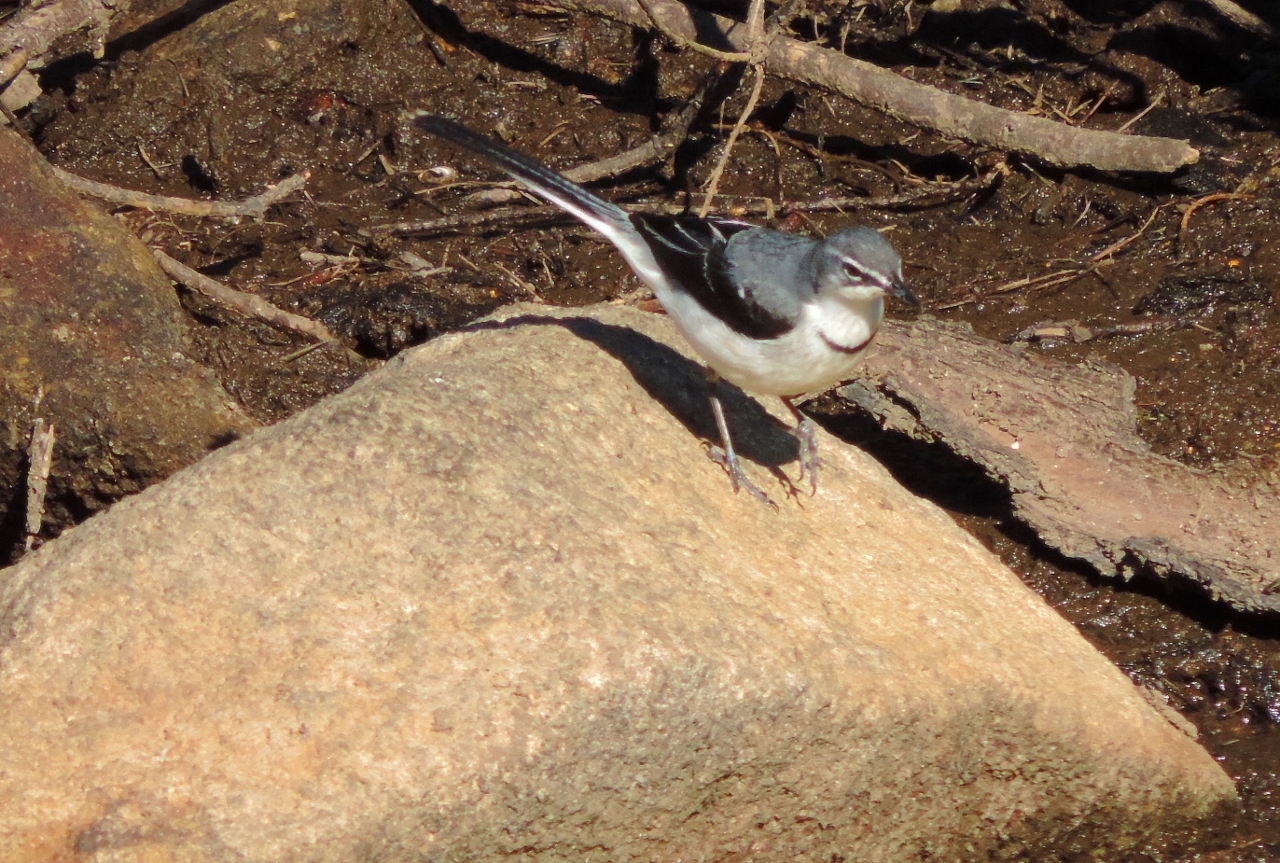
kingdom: Animalia
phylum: Chordata
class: Aves
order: Passeriformes
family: Motacillidae
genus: Motacilla
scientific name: Motacilla clara
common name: Mountain wagtail
